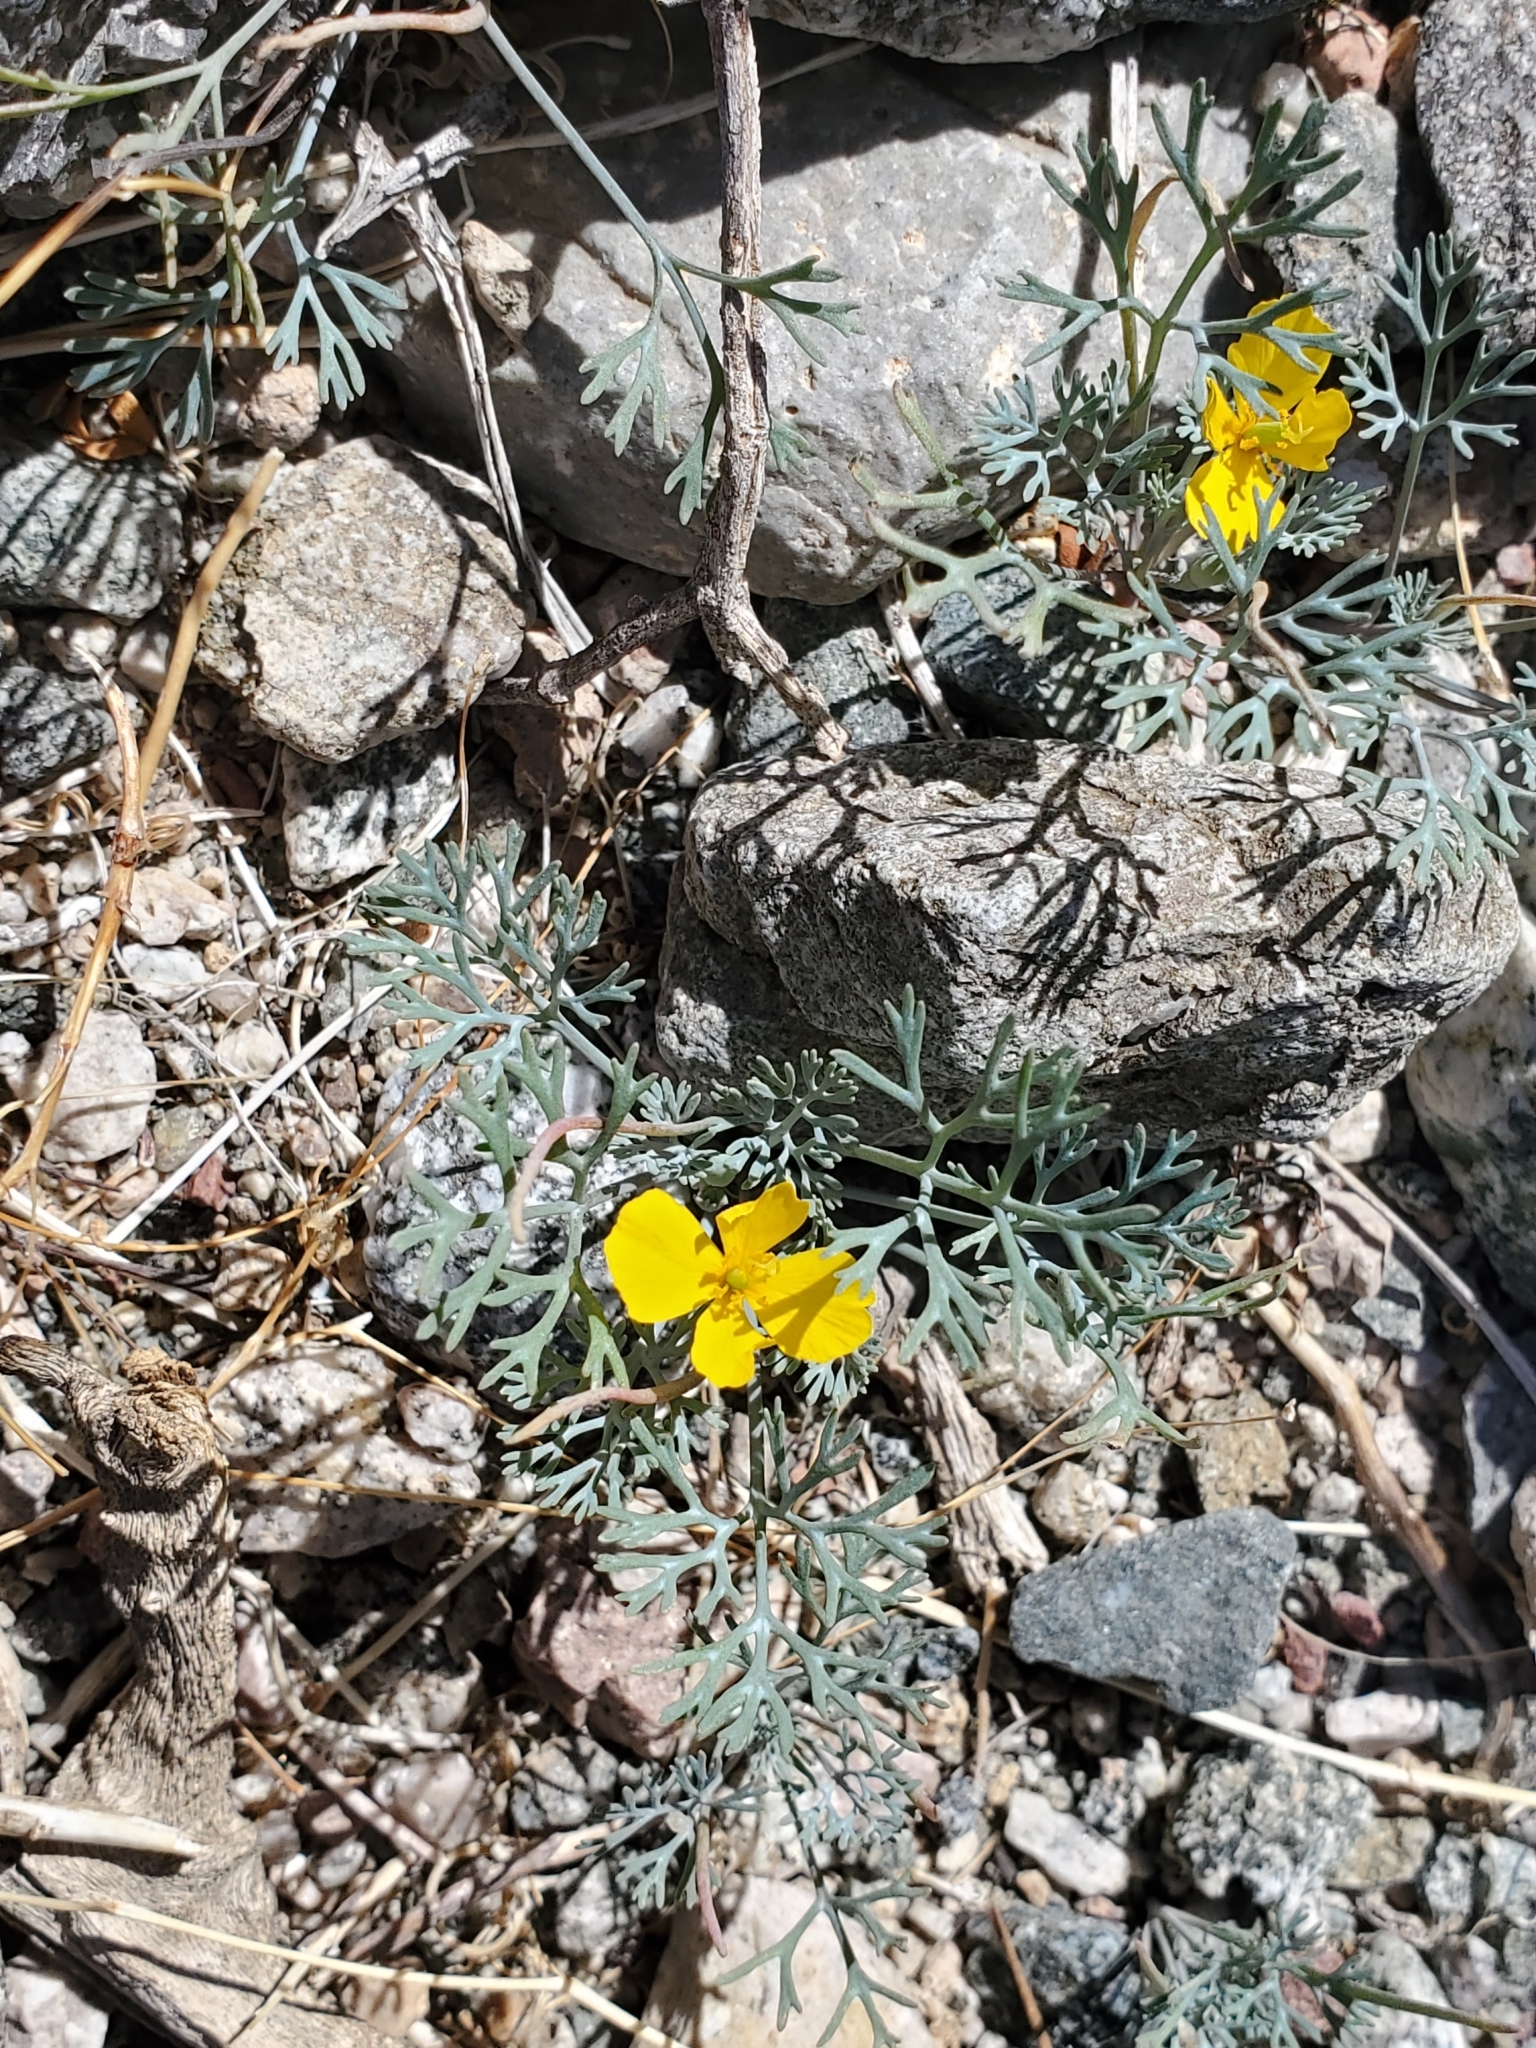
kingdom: Plantae
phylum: Tracheophyta
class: Magnoliopsida
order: Ranunculales
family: Papaveraceae
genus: Eschscholzia
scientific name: Eschscholzia minutiflora
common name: Small-flower california-poppy
